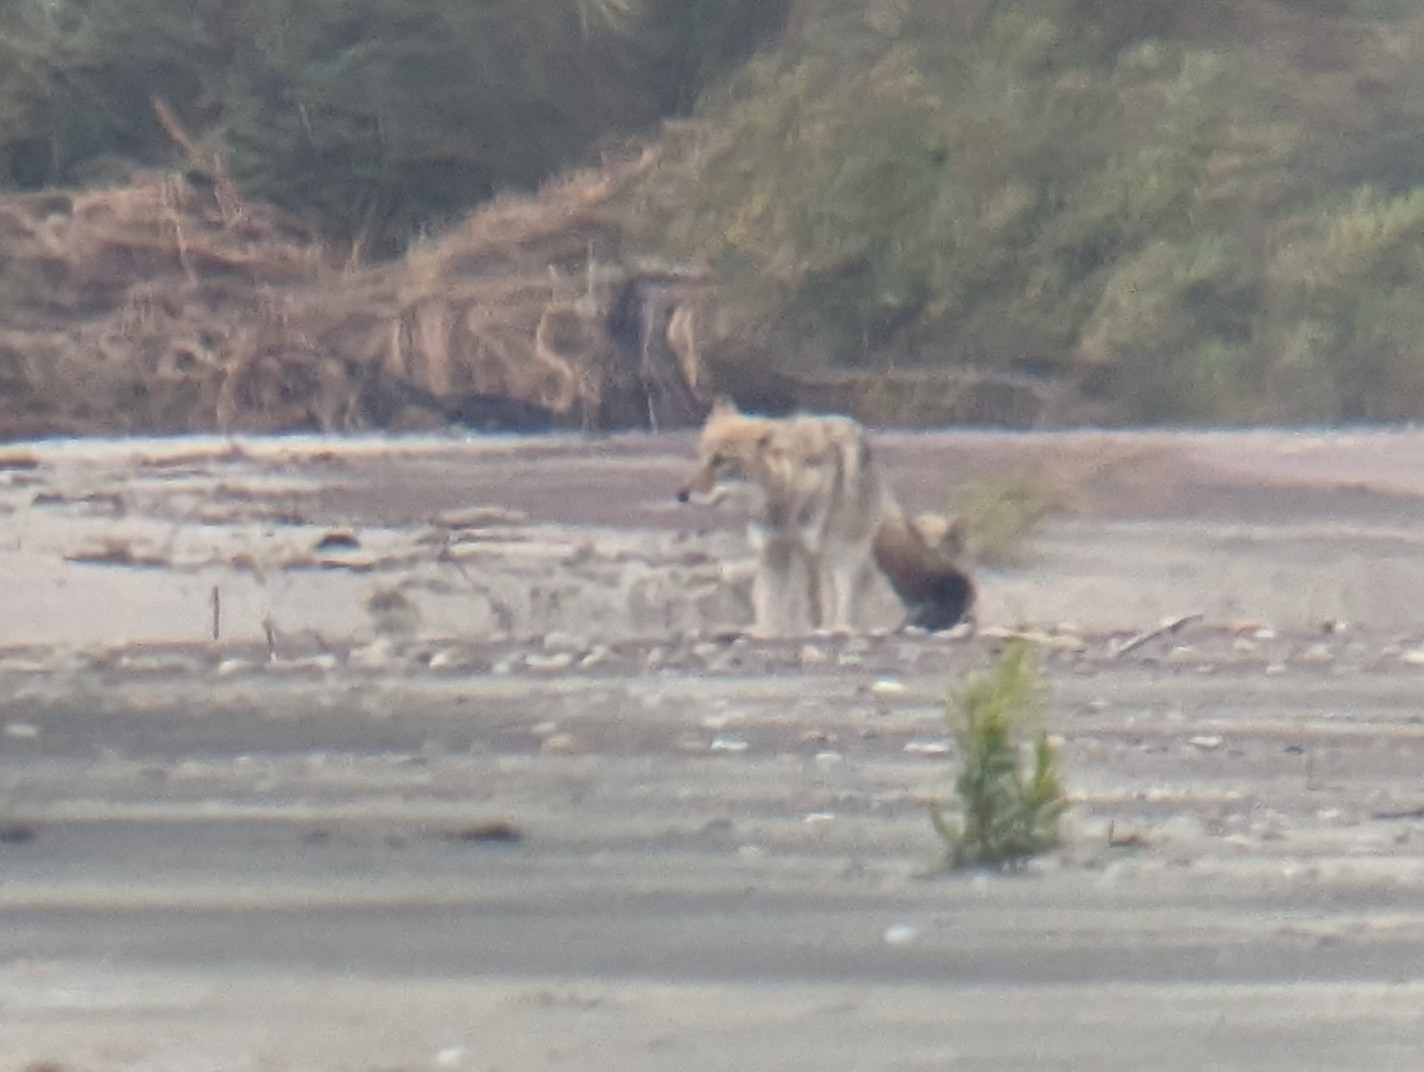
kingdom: Animalia
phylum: Chordata
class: Mammalia
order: Carnivora
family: Canidae
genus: Canis
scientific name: Canis latrans
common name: Coyote
